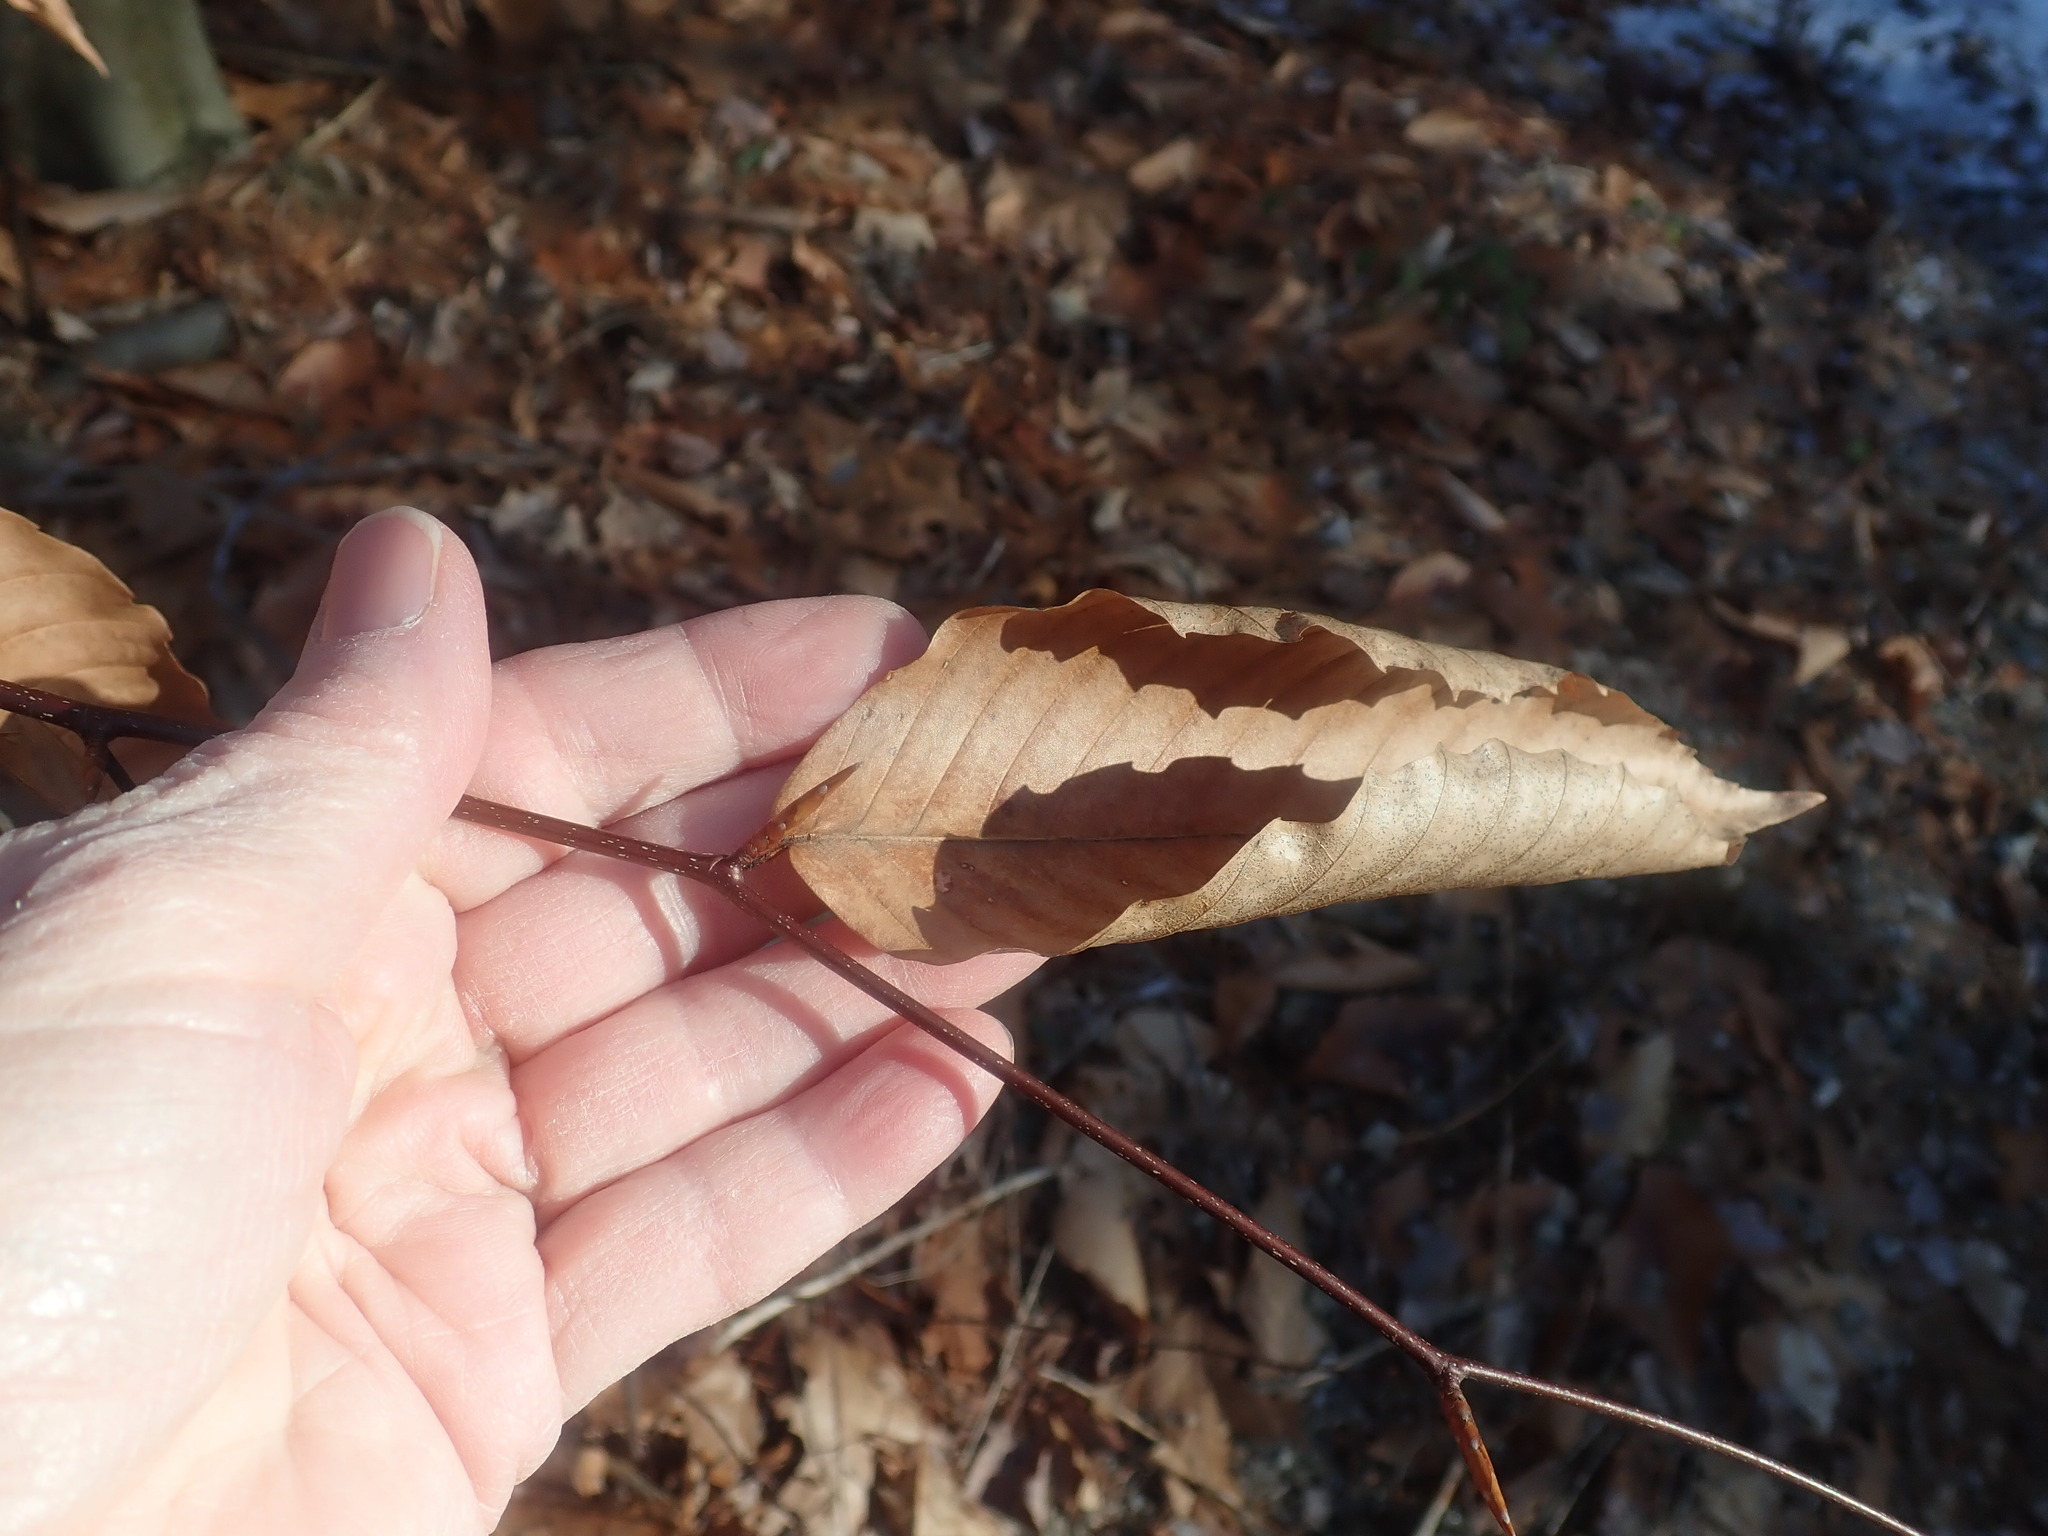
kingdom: Plantae
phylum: Tracheophyta
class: Magnoliopsida
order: Fagales
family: Fagaceae
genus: Fagus
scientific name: Fagus grandifolia
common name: American beech
